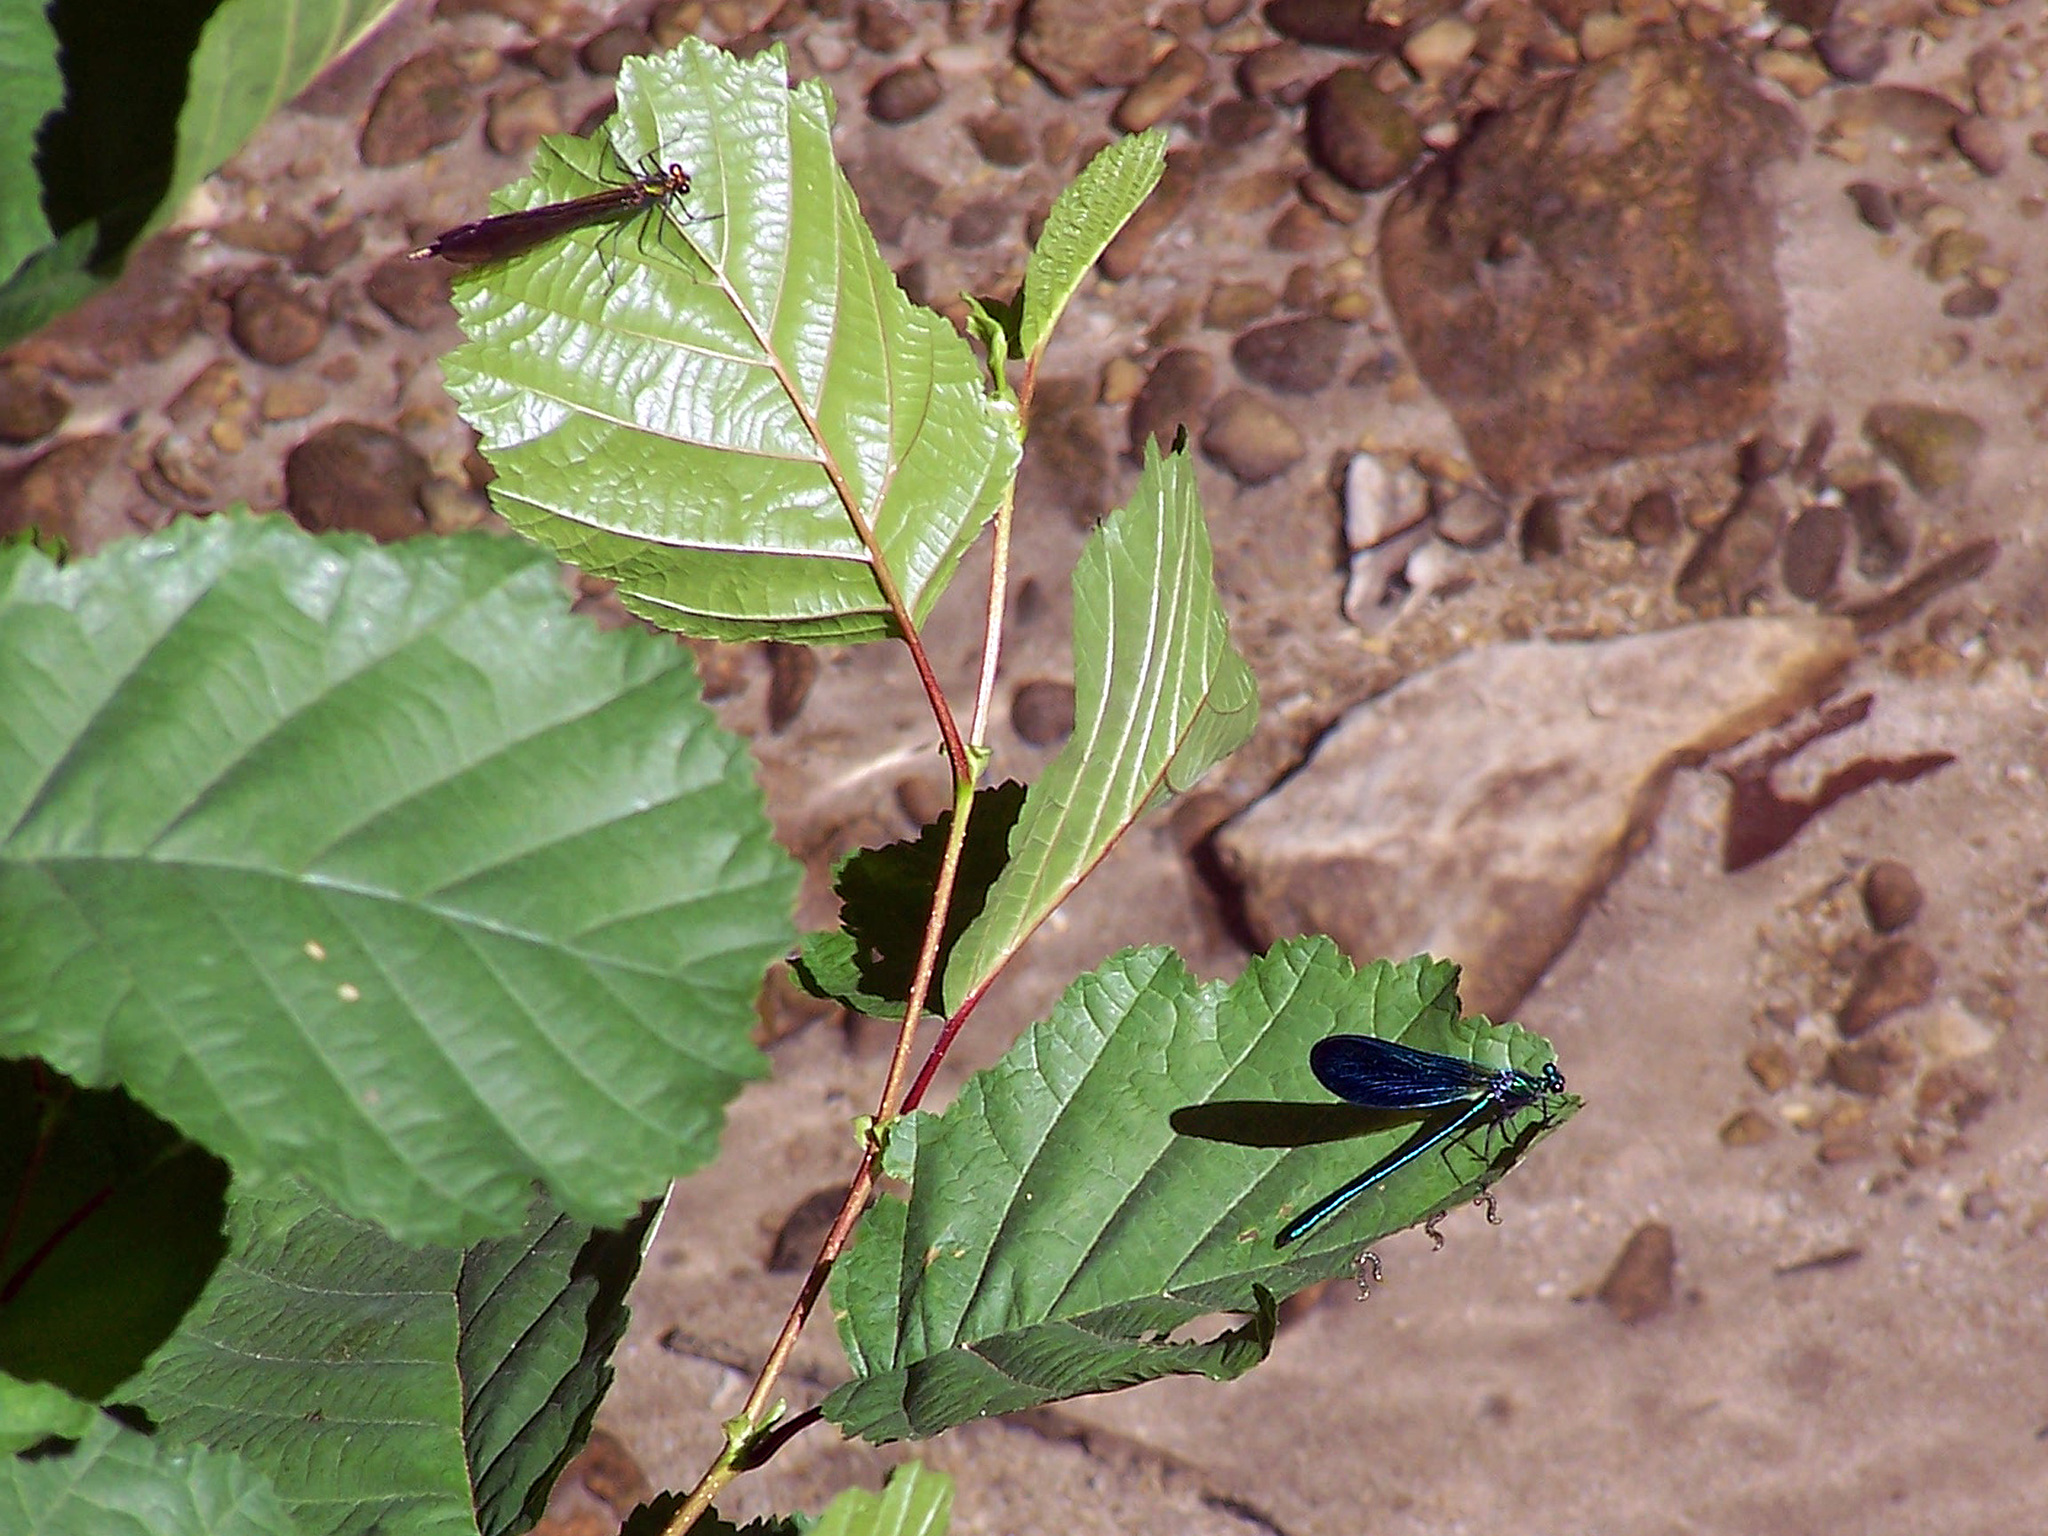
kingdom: Animalia
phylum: Arthropoda
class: Insecta
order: Odonata
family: Calopterygidae
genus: Calopteryx
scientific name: Calopteryx virgo
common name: Beautiful demoiselle
